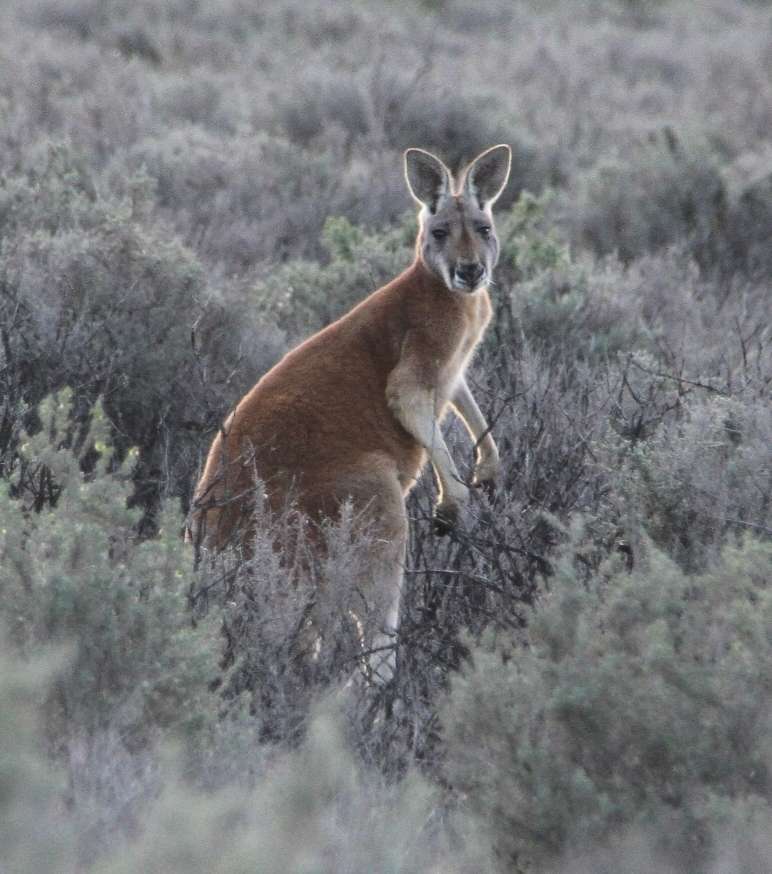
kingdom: Animalia
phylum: Chordata
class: Mammalia
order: Diprotodontia
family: Macropodidae
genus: Macropus
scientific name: Macropus rufus
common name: Red kangaroo
